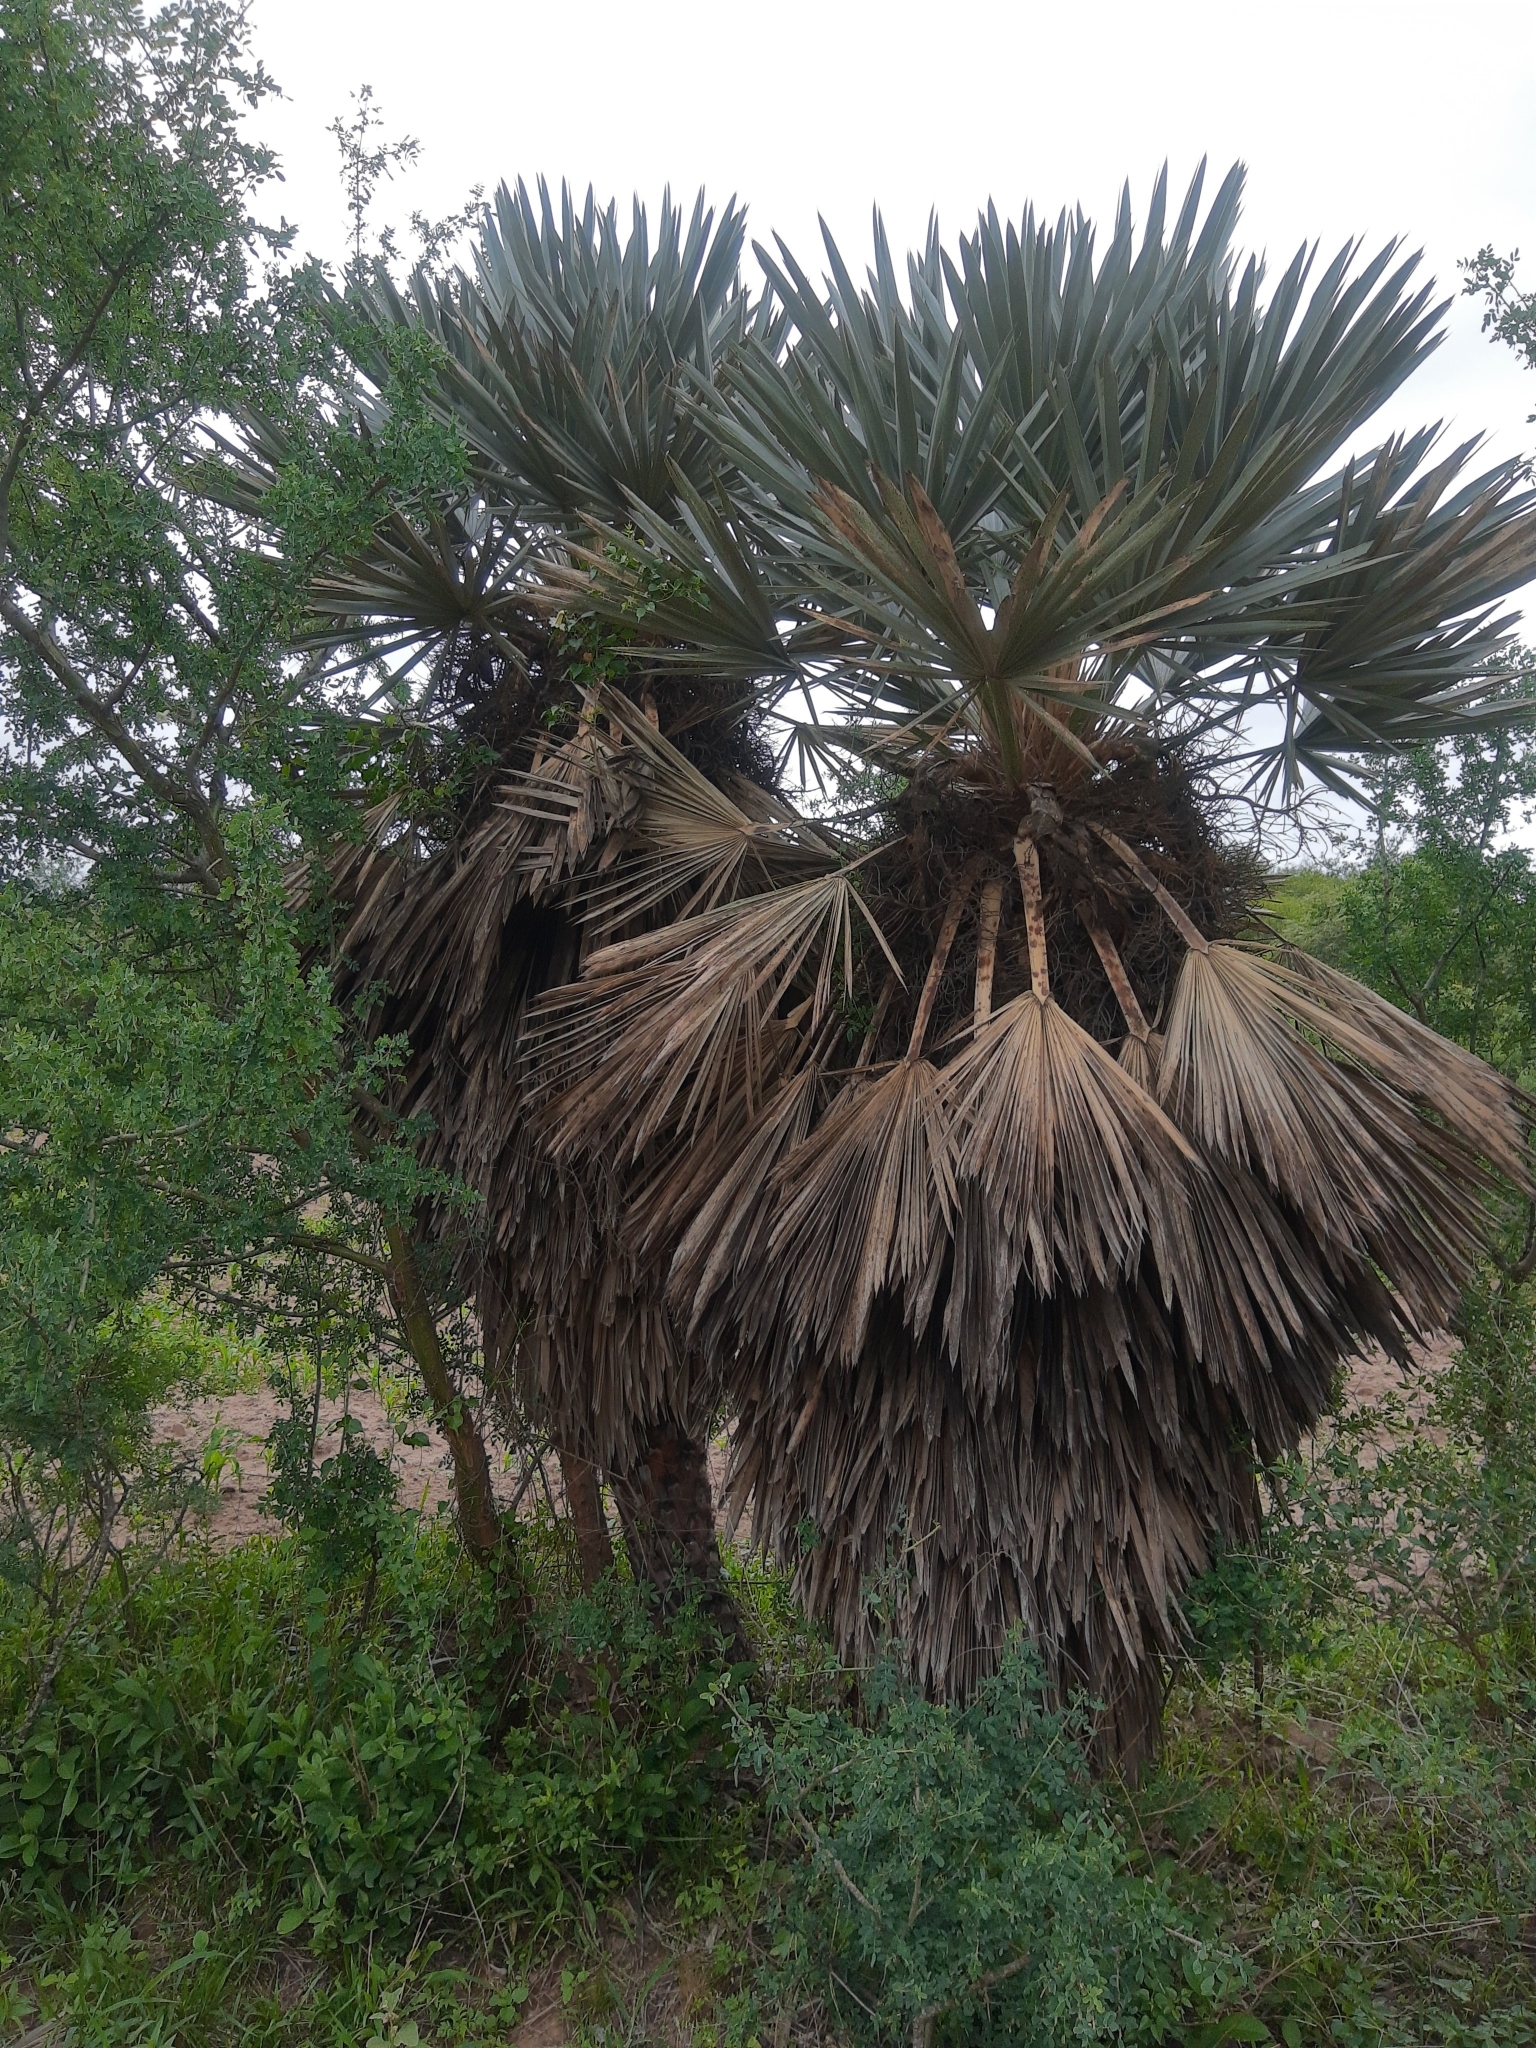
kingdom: Plantae
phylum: Tracheophyta
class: Liliopsida
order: Arecales
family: Arecaceae
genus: Trithrinax
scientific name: Trithrinax campestris
